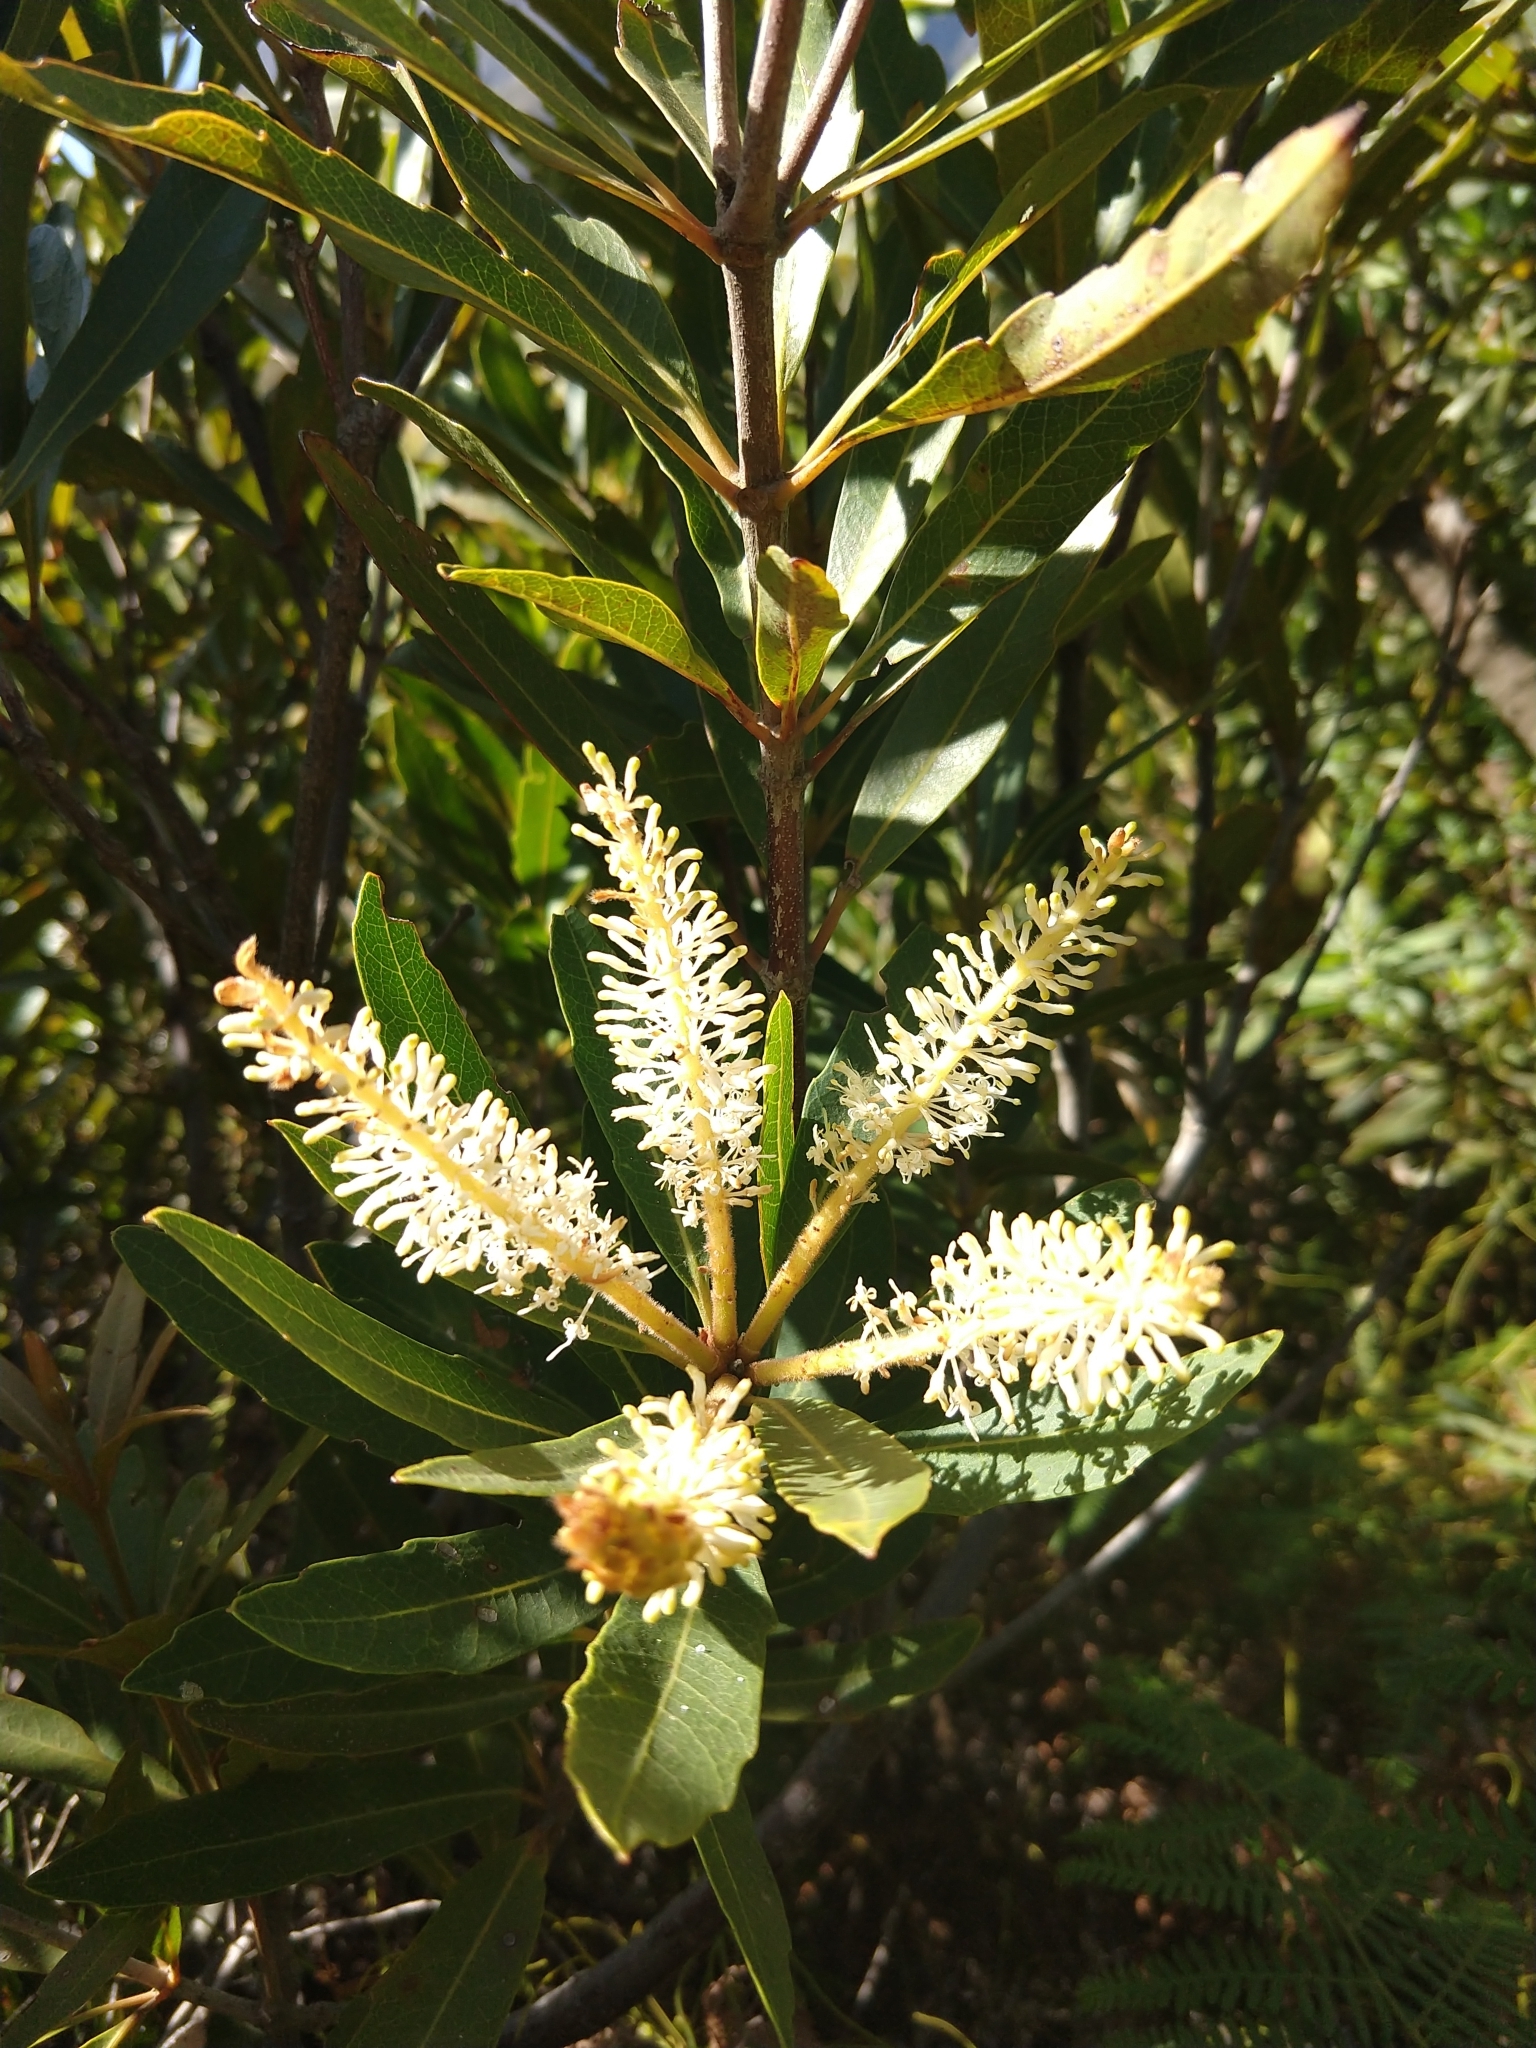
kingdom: Plantae
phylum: Tracheophyta
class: Magnoliopsida
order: Proteales
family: Proteaceae
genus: Brabejum
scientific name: Brabejum stellatifolium
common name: Wild almond
